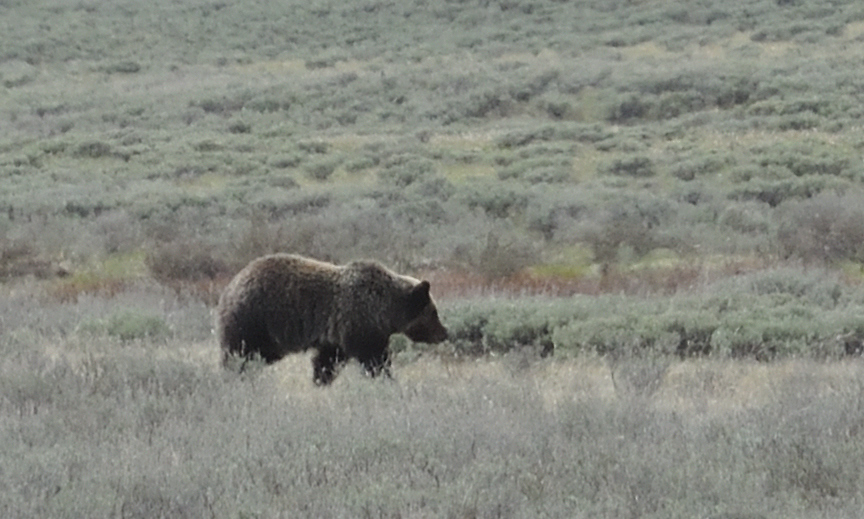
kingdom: Animalia
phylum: Chordata
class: Mammalia
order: Carnivora
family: Ursidae
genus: Ursus
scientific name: Ursus arctos
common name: Brown bear
